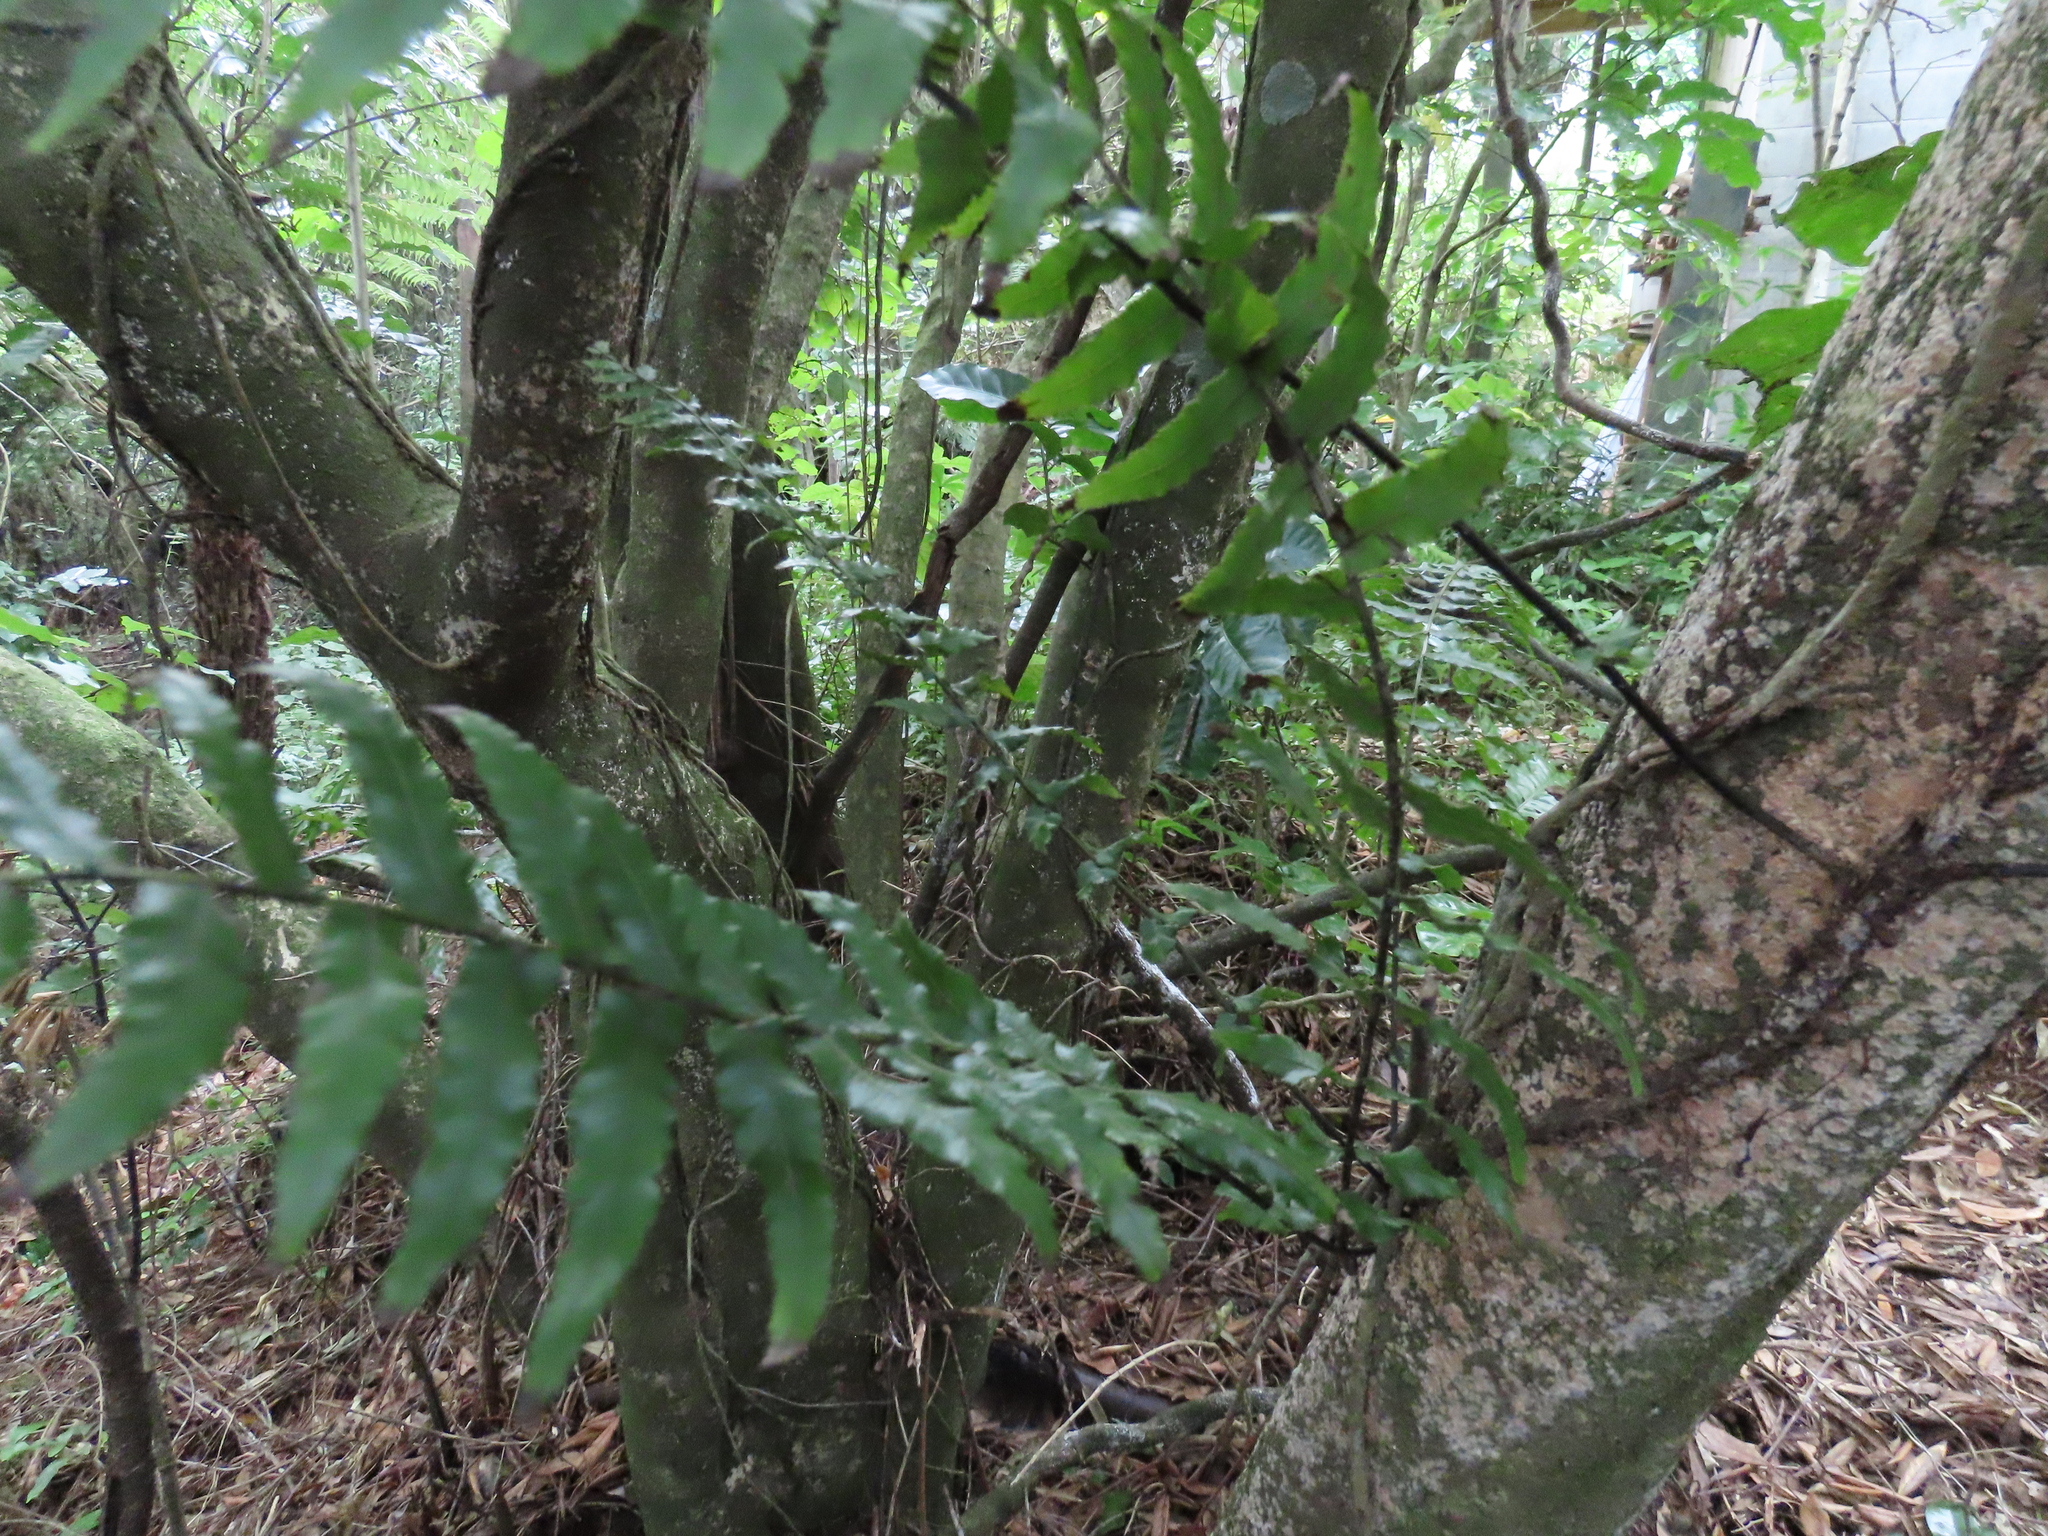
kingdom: Plantae
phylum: Tracheophyta
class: Polypodiopsida
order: Polypodiales
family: Blechnaceae
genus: Icarus
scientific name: Icarus filiformis
